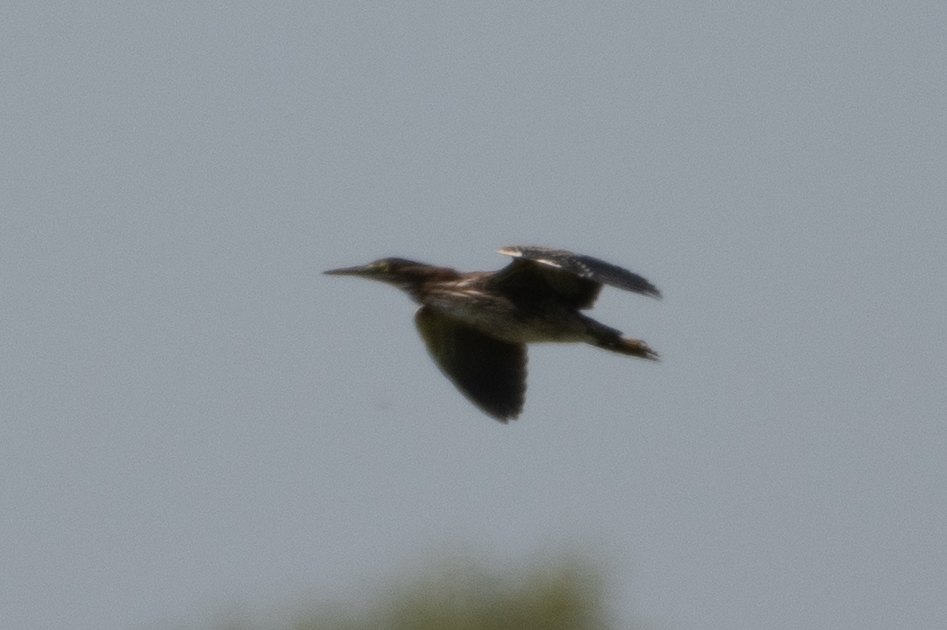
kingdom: Animalia
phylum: Chordata
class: Aves
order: Pelecaniformes
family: Ardeidae
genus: Butorides
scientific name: Butorides virescens
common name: Green heron
